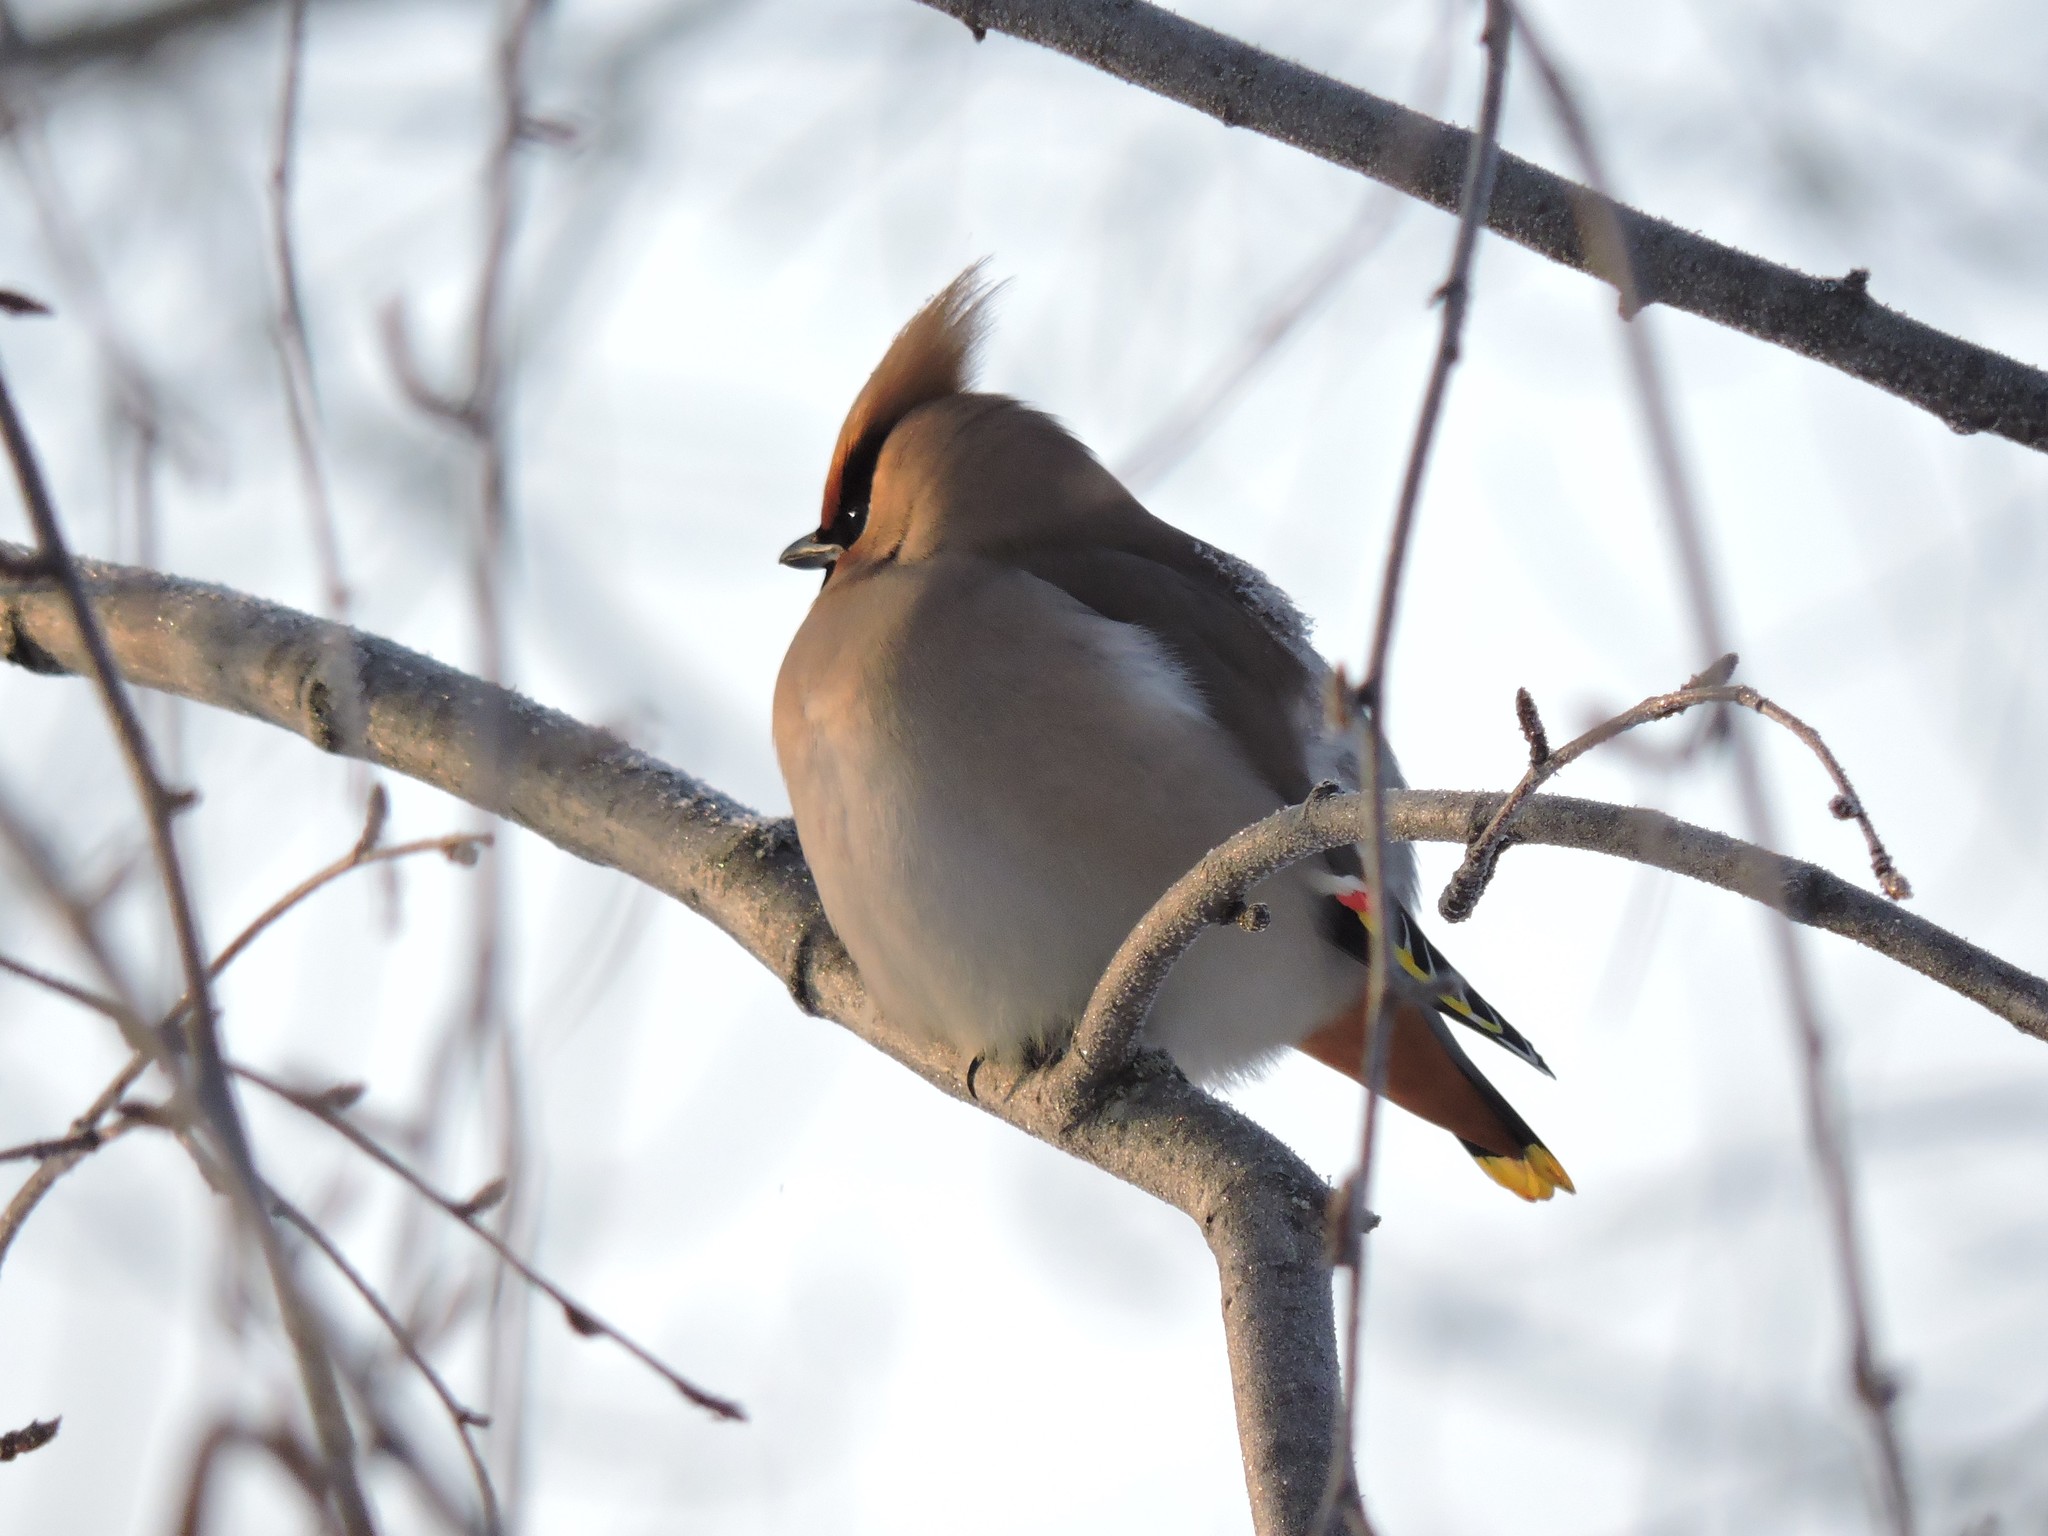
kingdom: Animalia
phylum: Chordata
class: Aves
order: Passeriformes
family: Bombycillidae
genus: Bombycilla
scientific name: Bombycilla garrulus
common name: Bohemian waxwing
